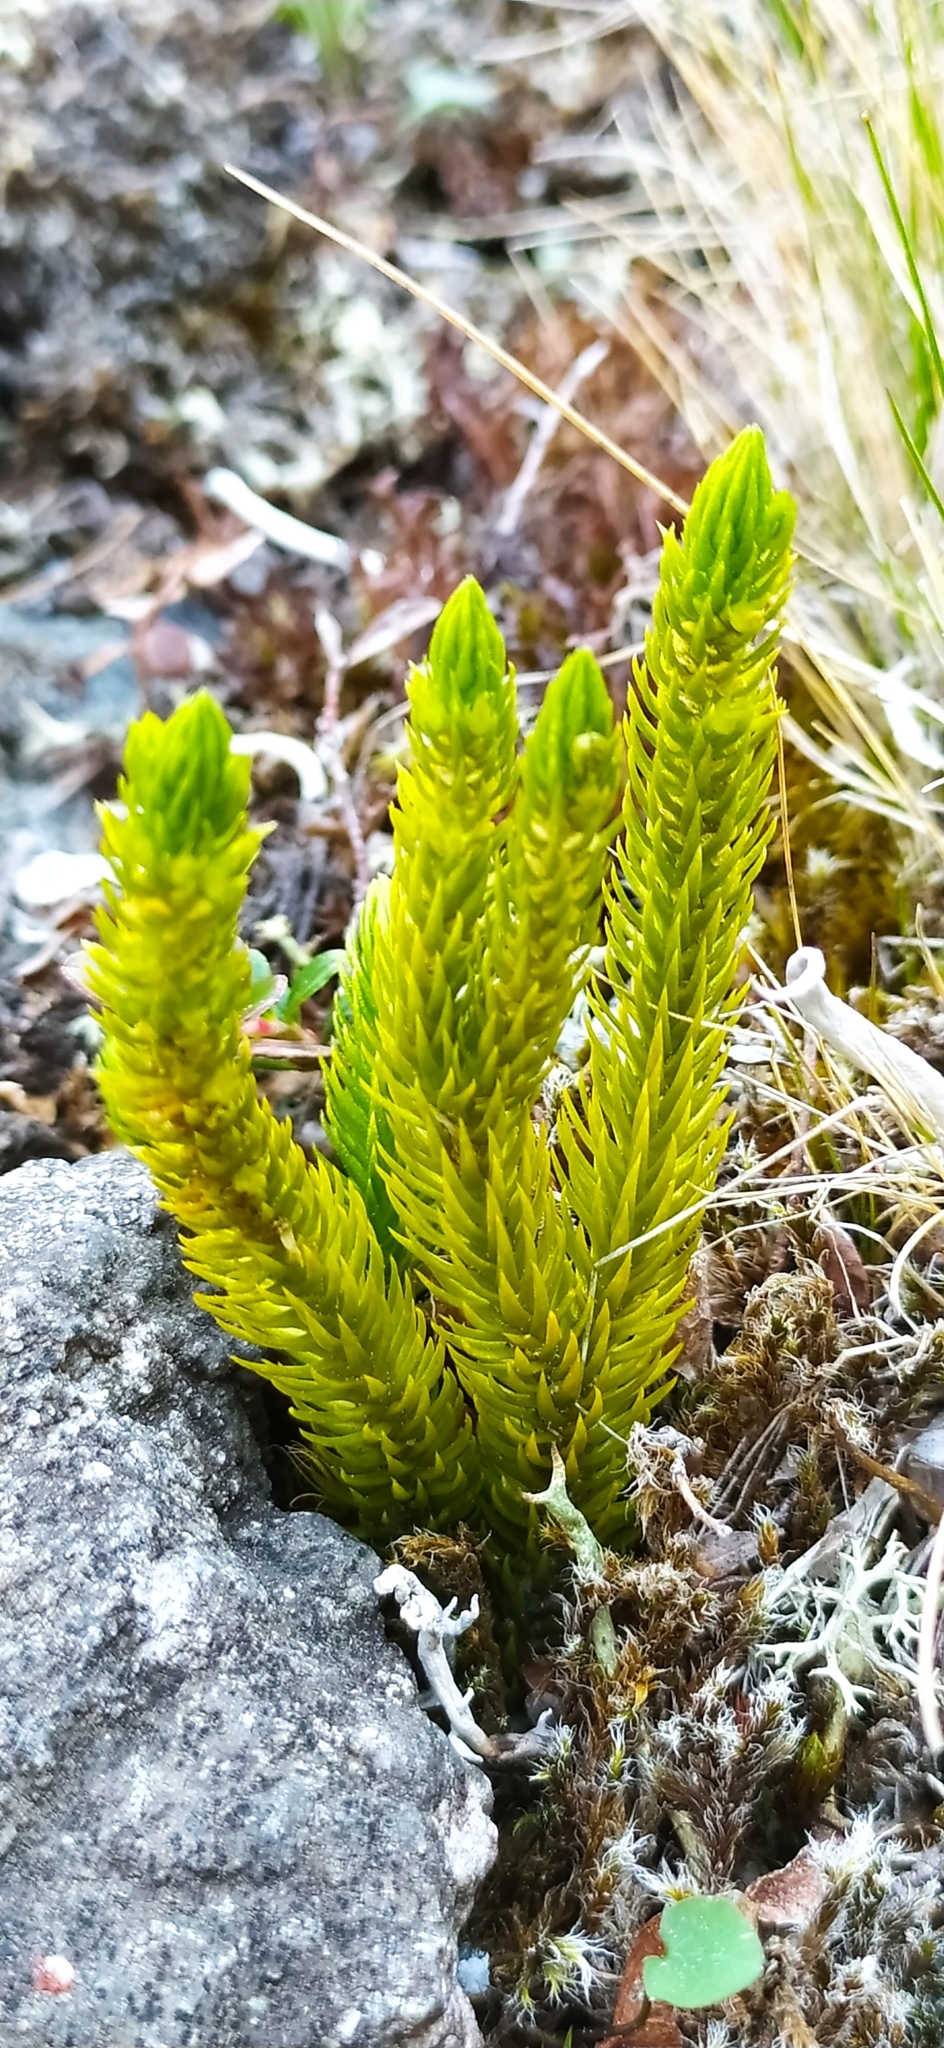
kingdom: Plantae
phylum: Tracheophyta
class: Lycopodiopsida
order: Lycopodiales
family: Lycopodiaceae
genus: Huperzia
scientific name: Huperzia selago
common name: Northern firmoss
